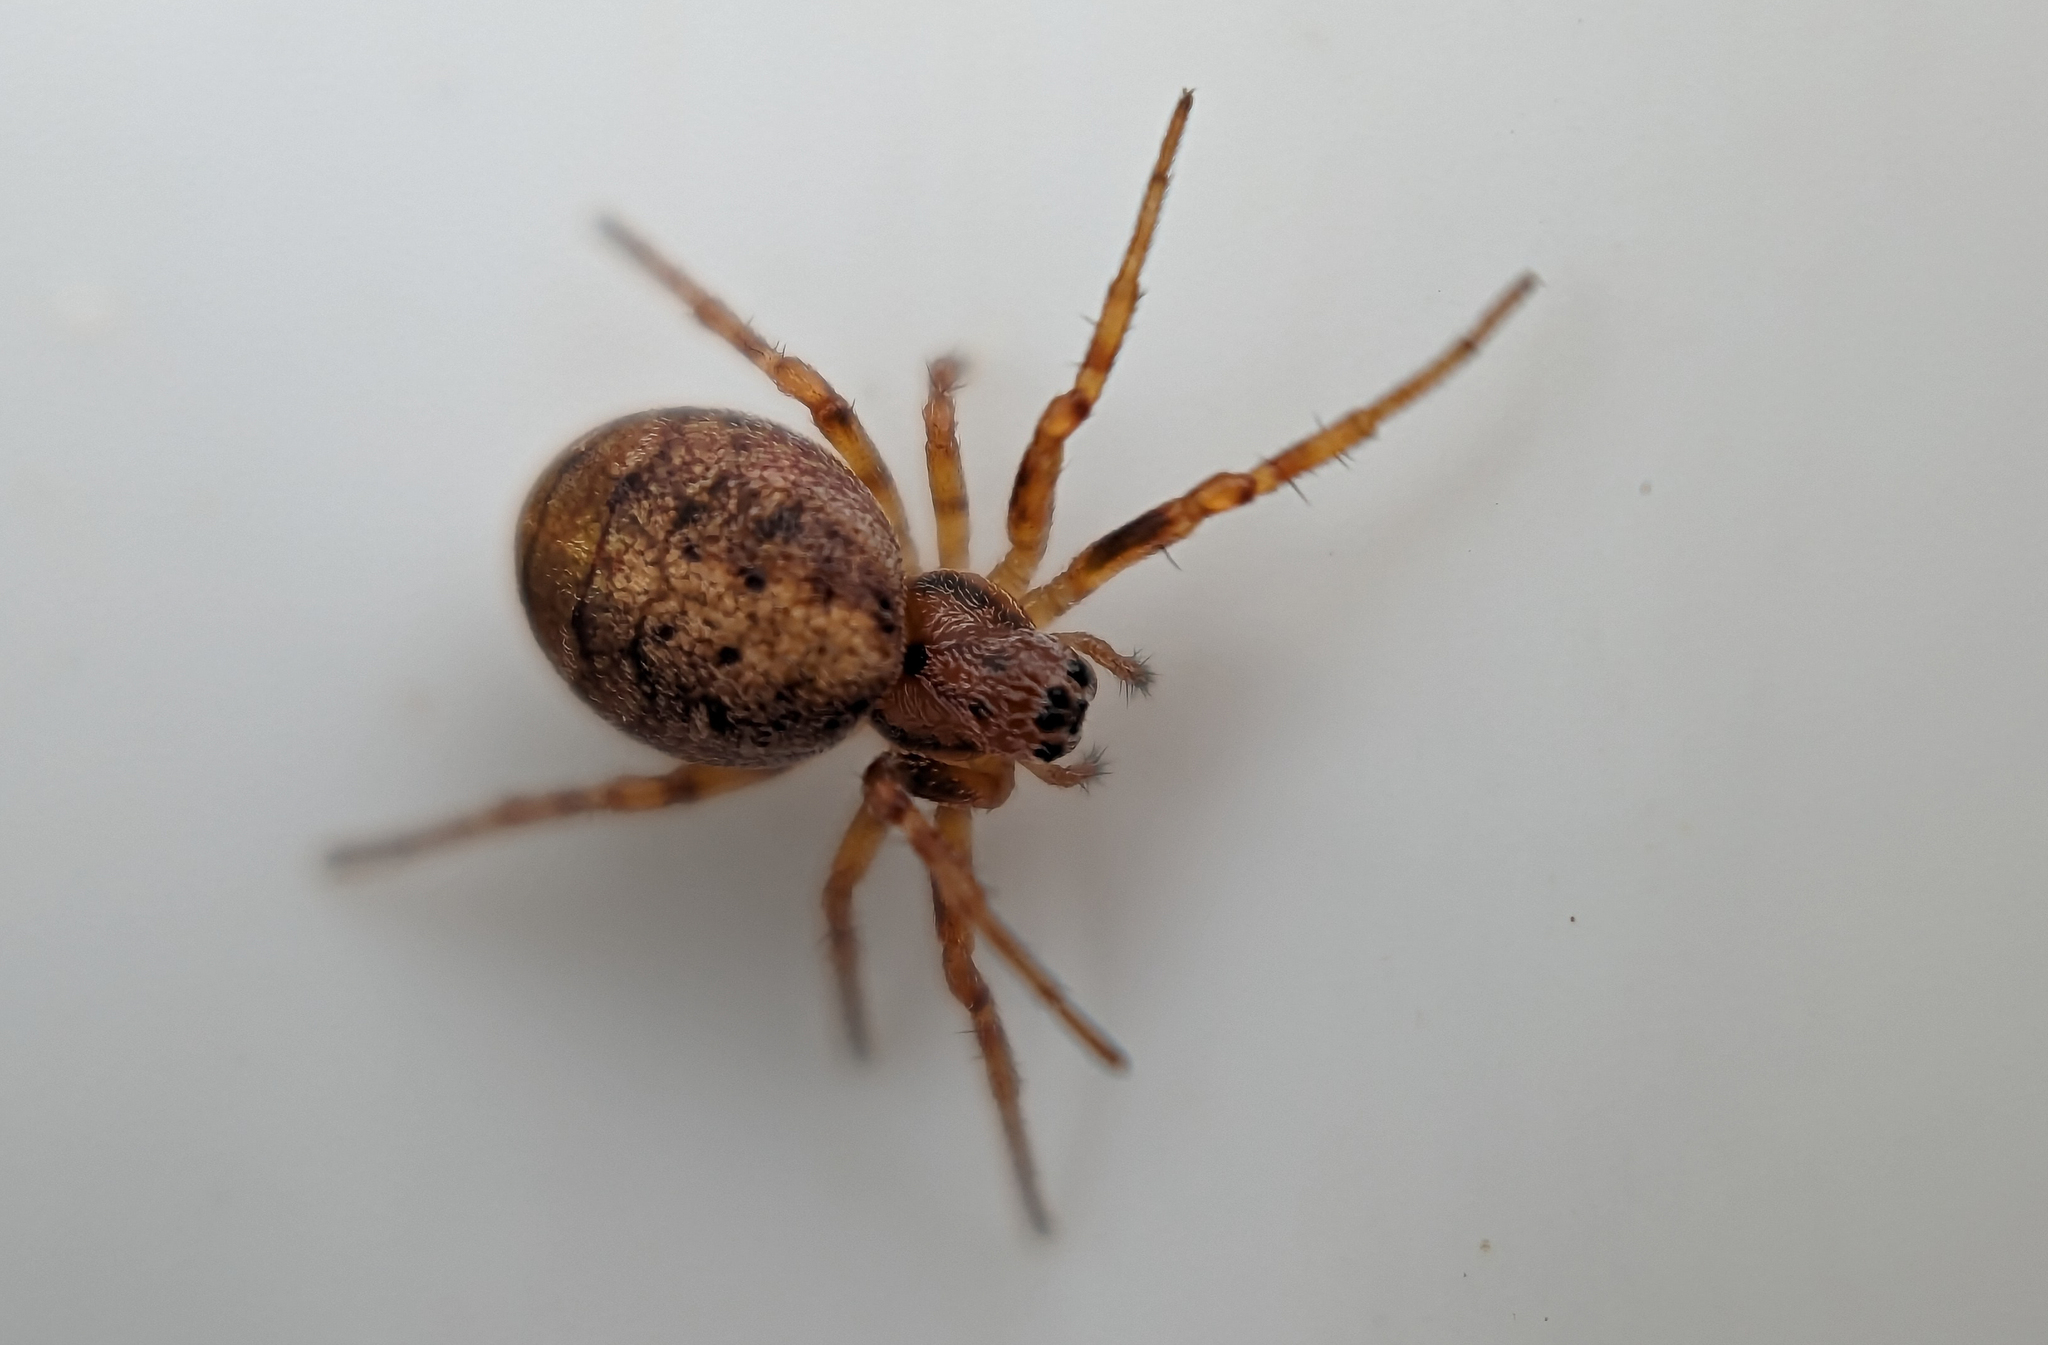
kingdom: Animalia
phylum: Arthropoda
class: Arachnida
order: Araneae
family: Araneidae
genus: Cercidia
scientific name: Cercidia prominens
